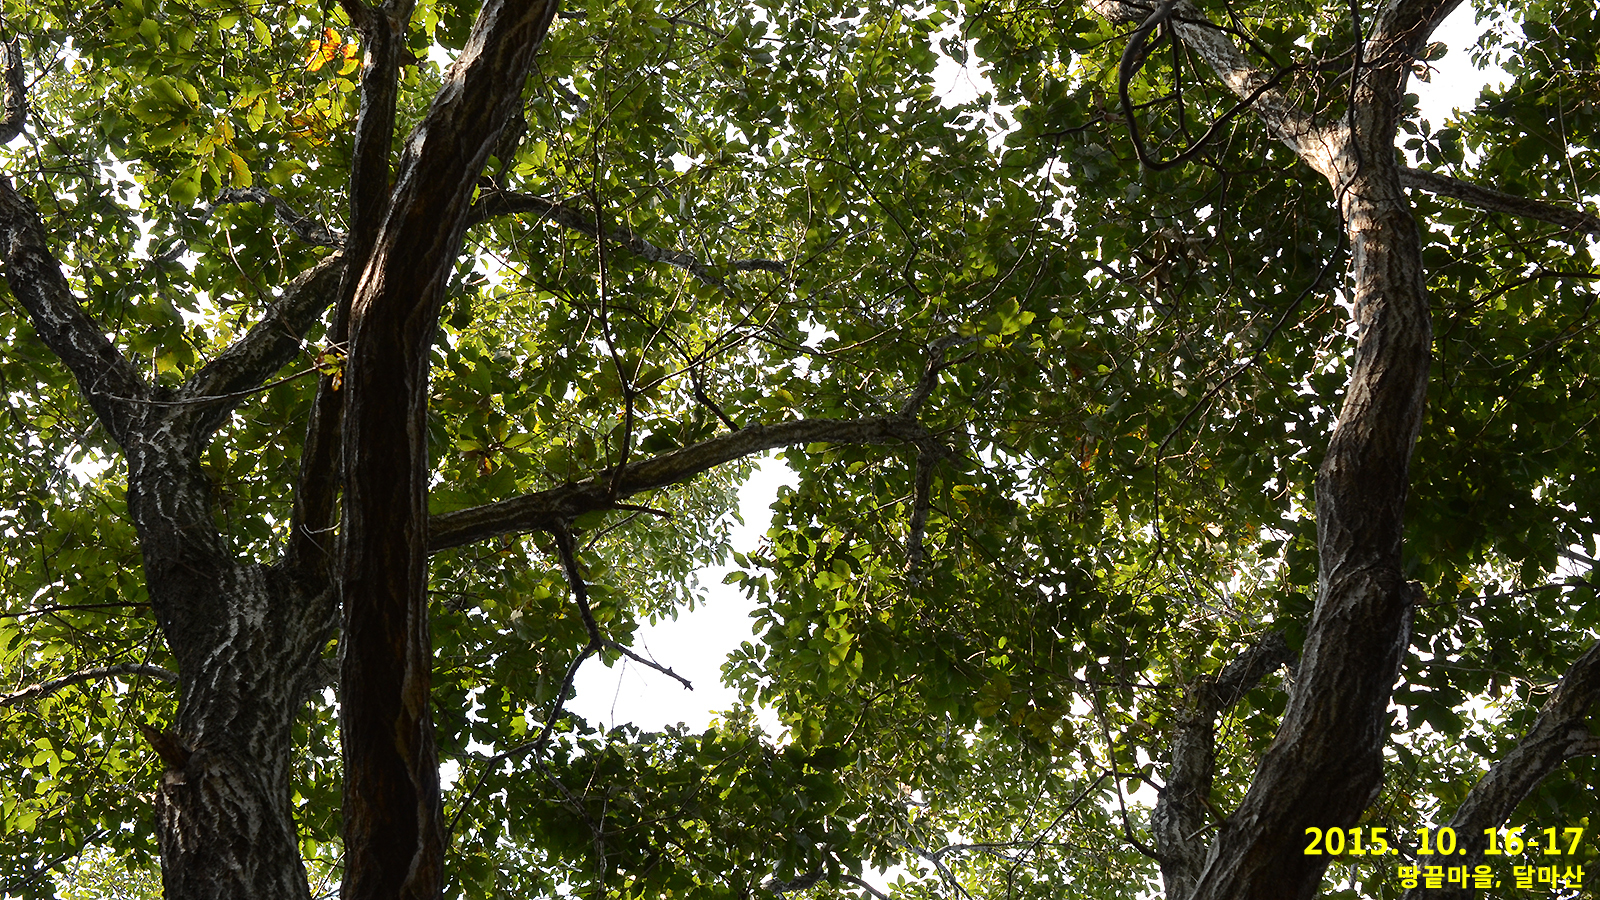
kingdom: Plantae
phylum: Tracheophyta
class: Magnoliopsida
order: Fagales
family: Fagaceae
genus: Quercus
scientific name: Quercus serrata
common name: Bao li
